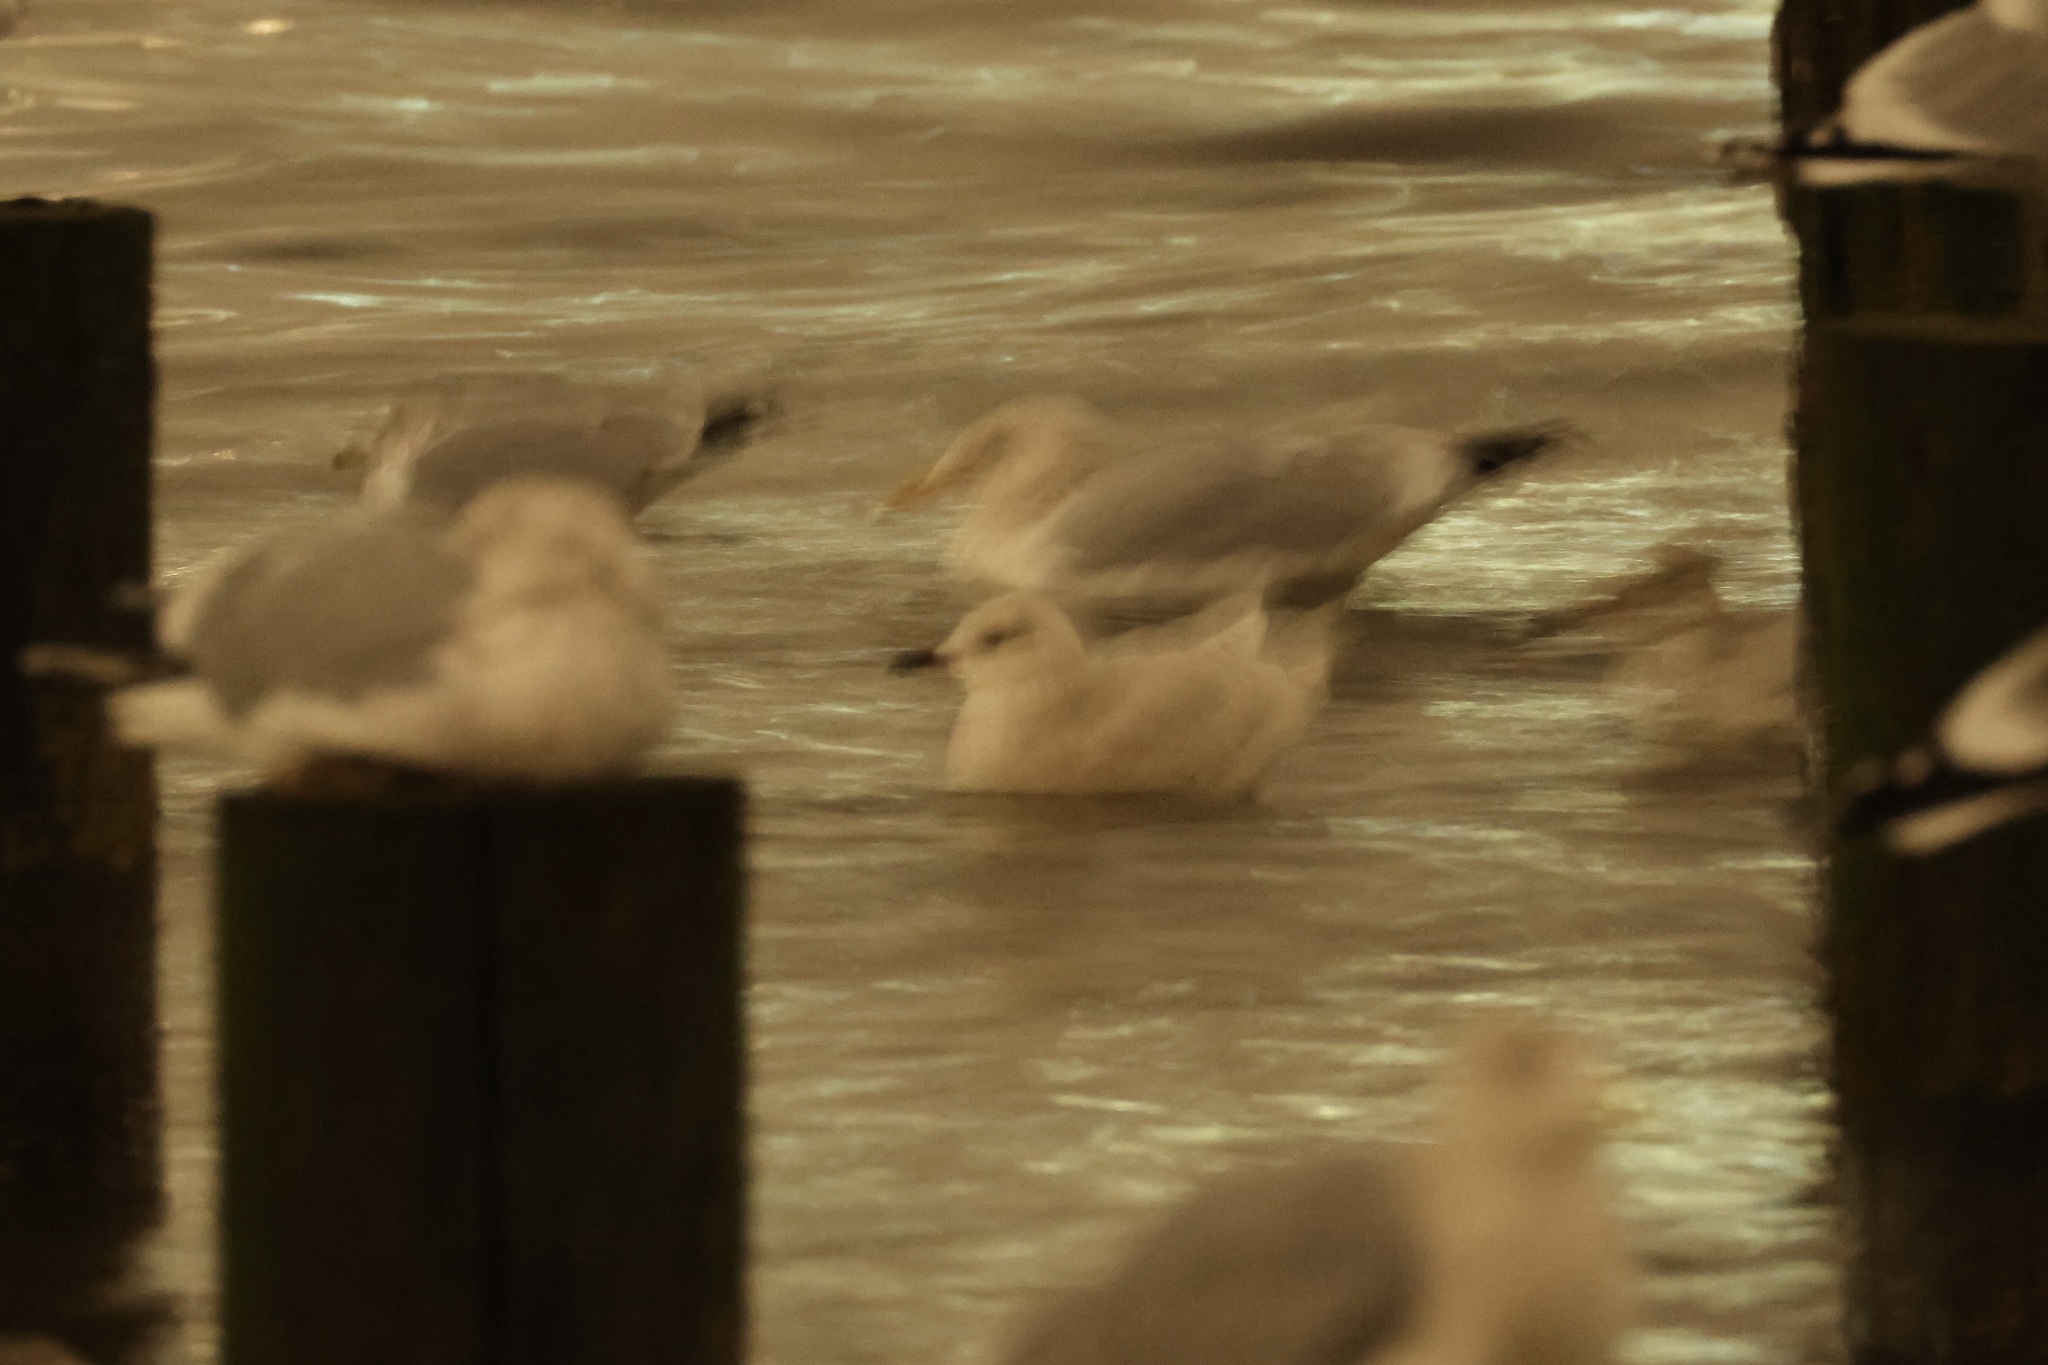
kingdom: Animalia
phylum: Chordata
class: Aves
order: Charadriiformes
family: Laridae
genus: Larus
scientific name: Larus glaucoides
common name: Iceland gull
